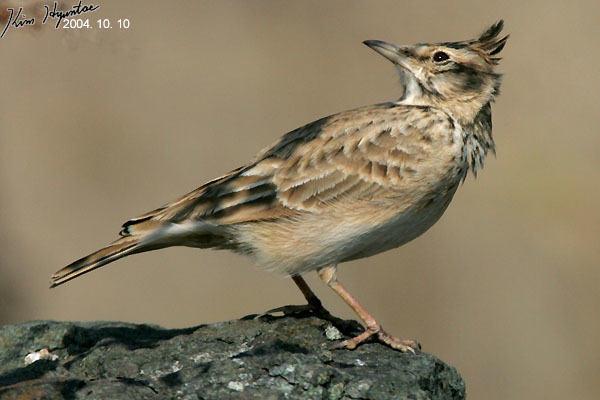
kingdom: Animalia
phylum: Chordata
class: Aves
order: Passeriformes
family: Alaudidae
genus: Galerida
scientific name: Galerida cristata
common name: Crested lark
